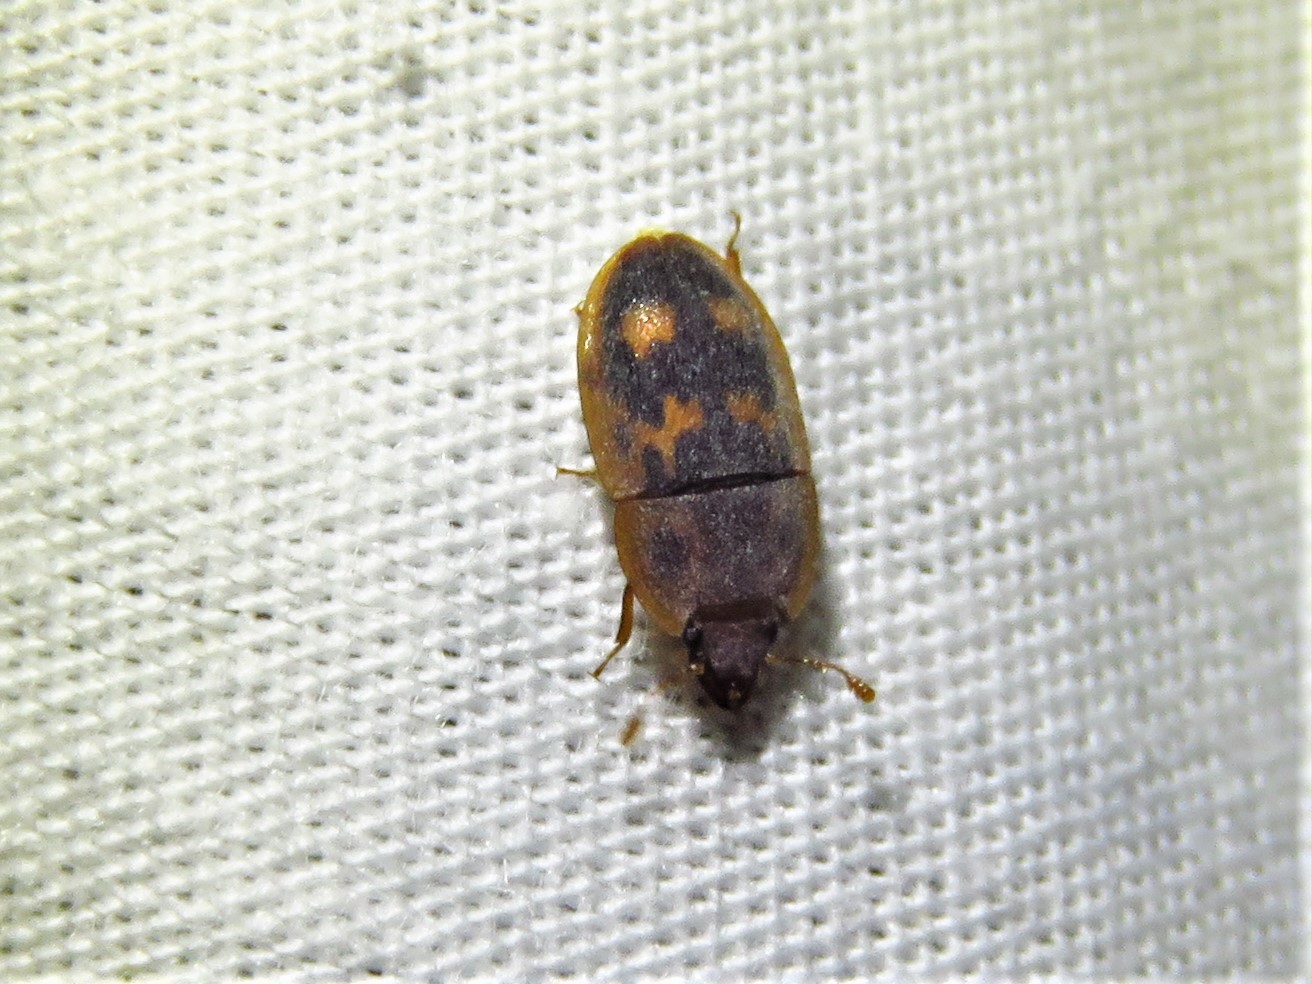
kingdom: Animalia
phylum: Arthropoda
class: Insecta
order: Coleoptera
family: Nitidulidae
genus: Cryptarcha
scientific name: Cryptarcha concinna
